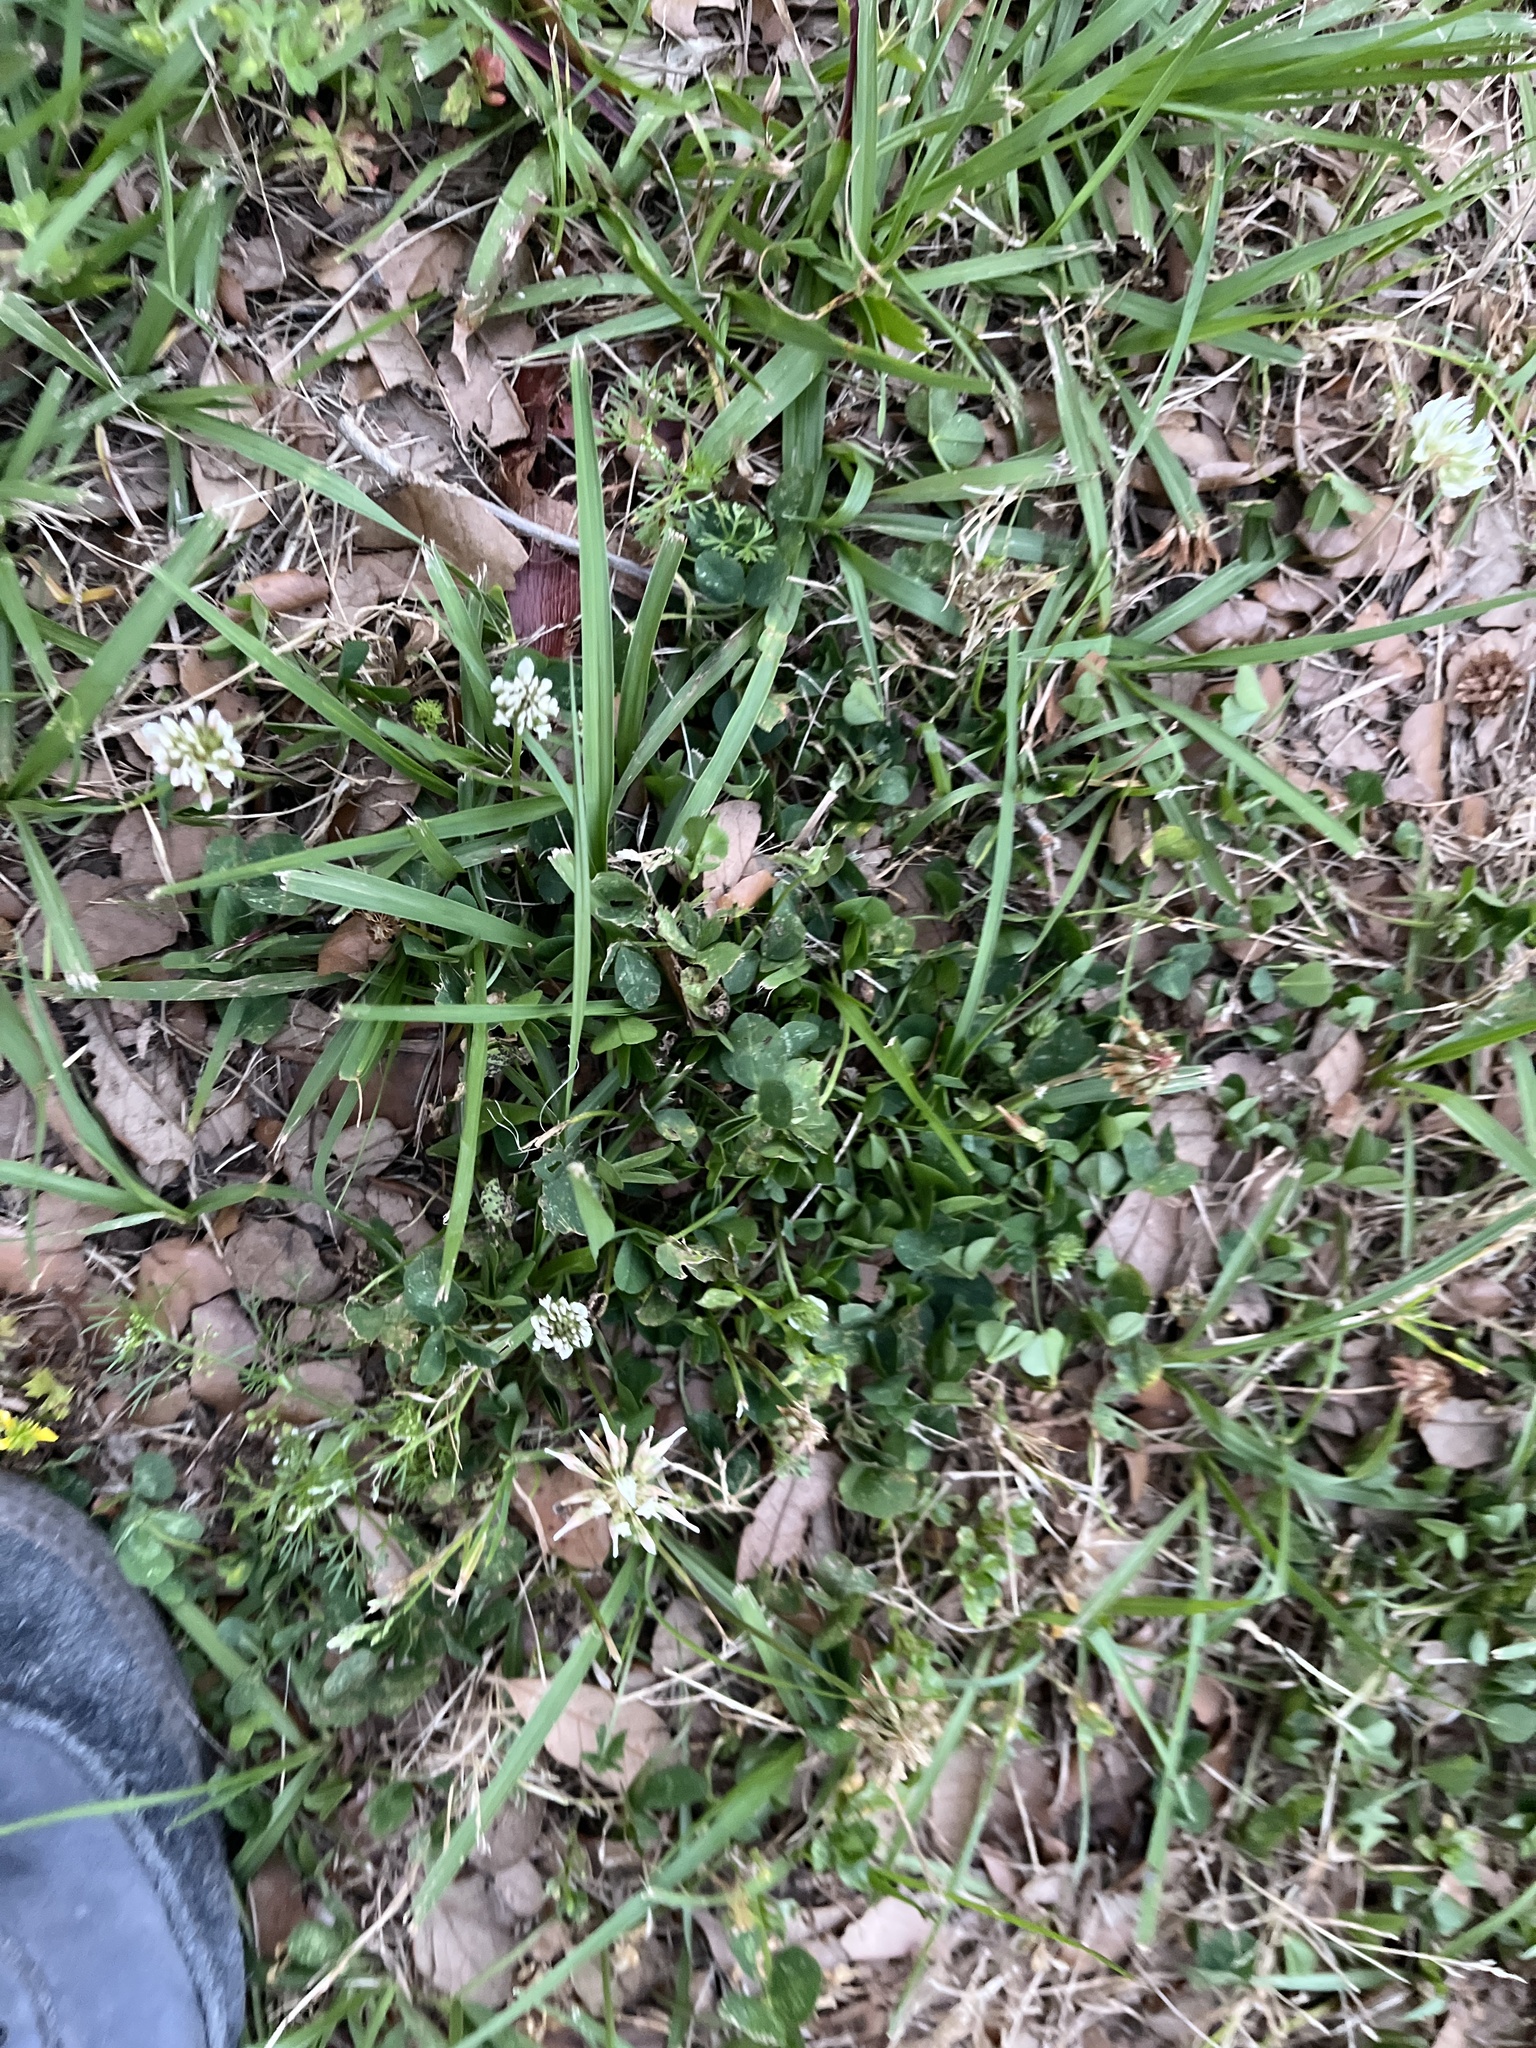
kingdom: Plantae
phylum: Tracheophyta
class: Magnoliopsida
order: Fabales
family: Fabaceae
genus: Trifolium
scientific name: Trifolium repens
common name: White clover
